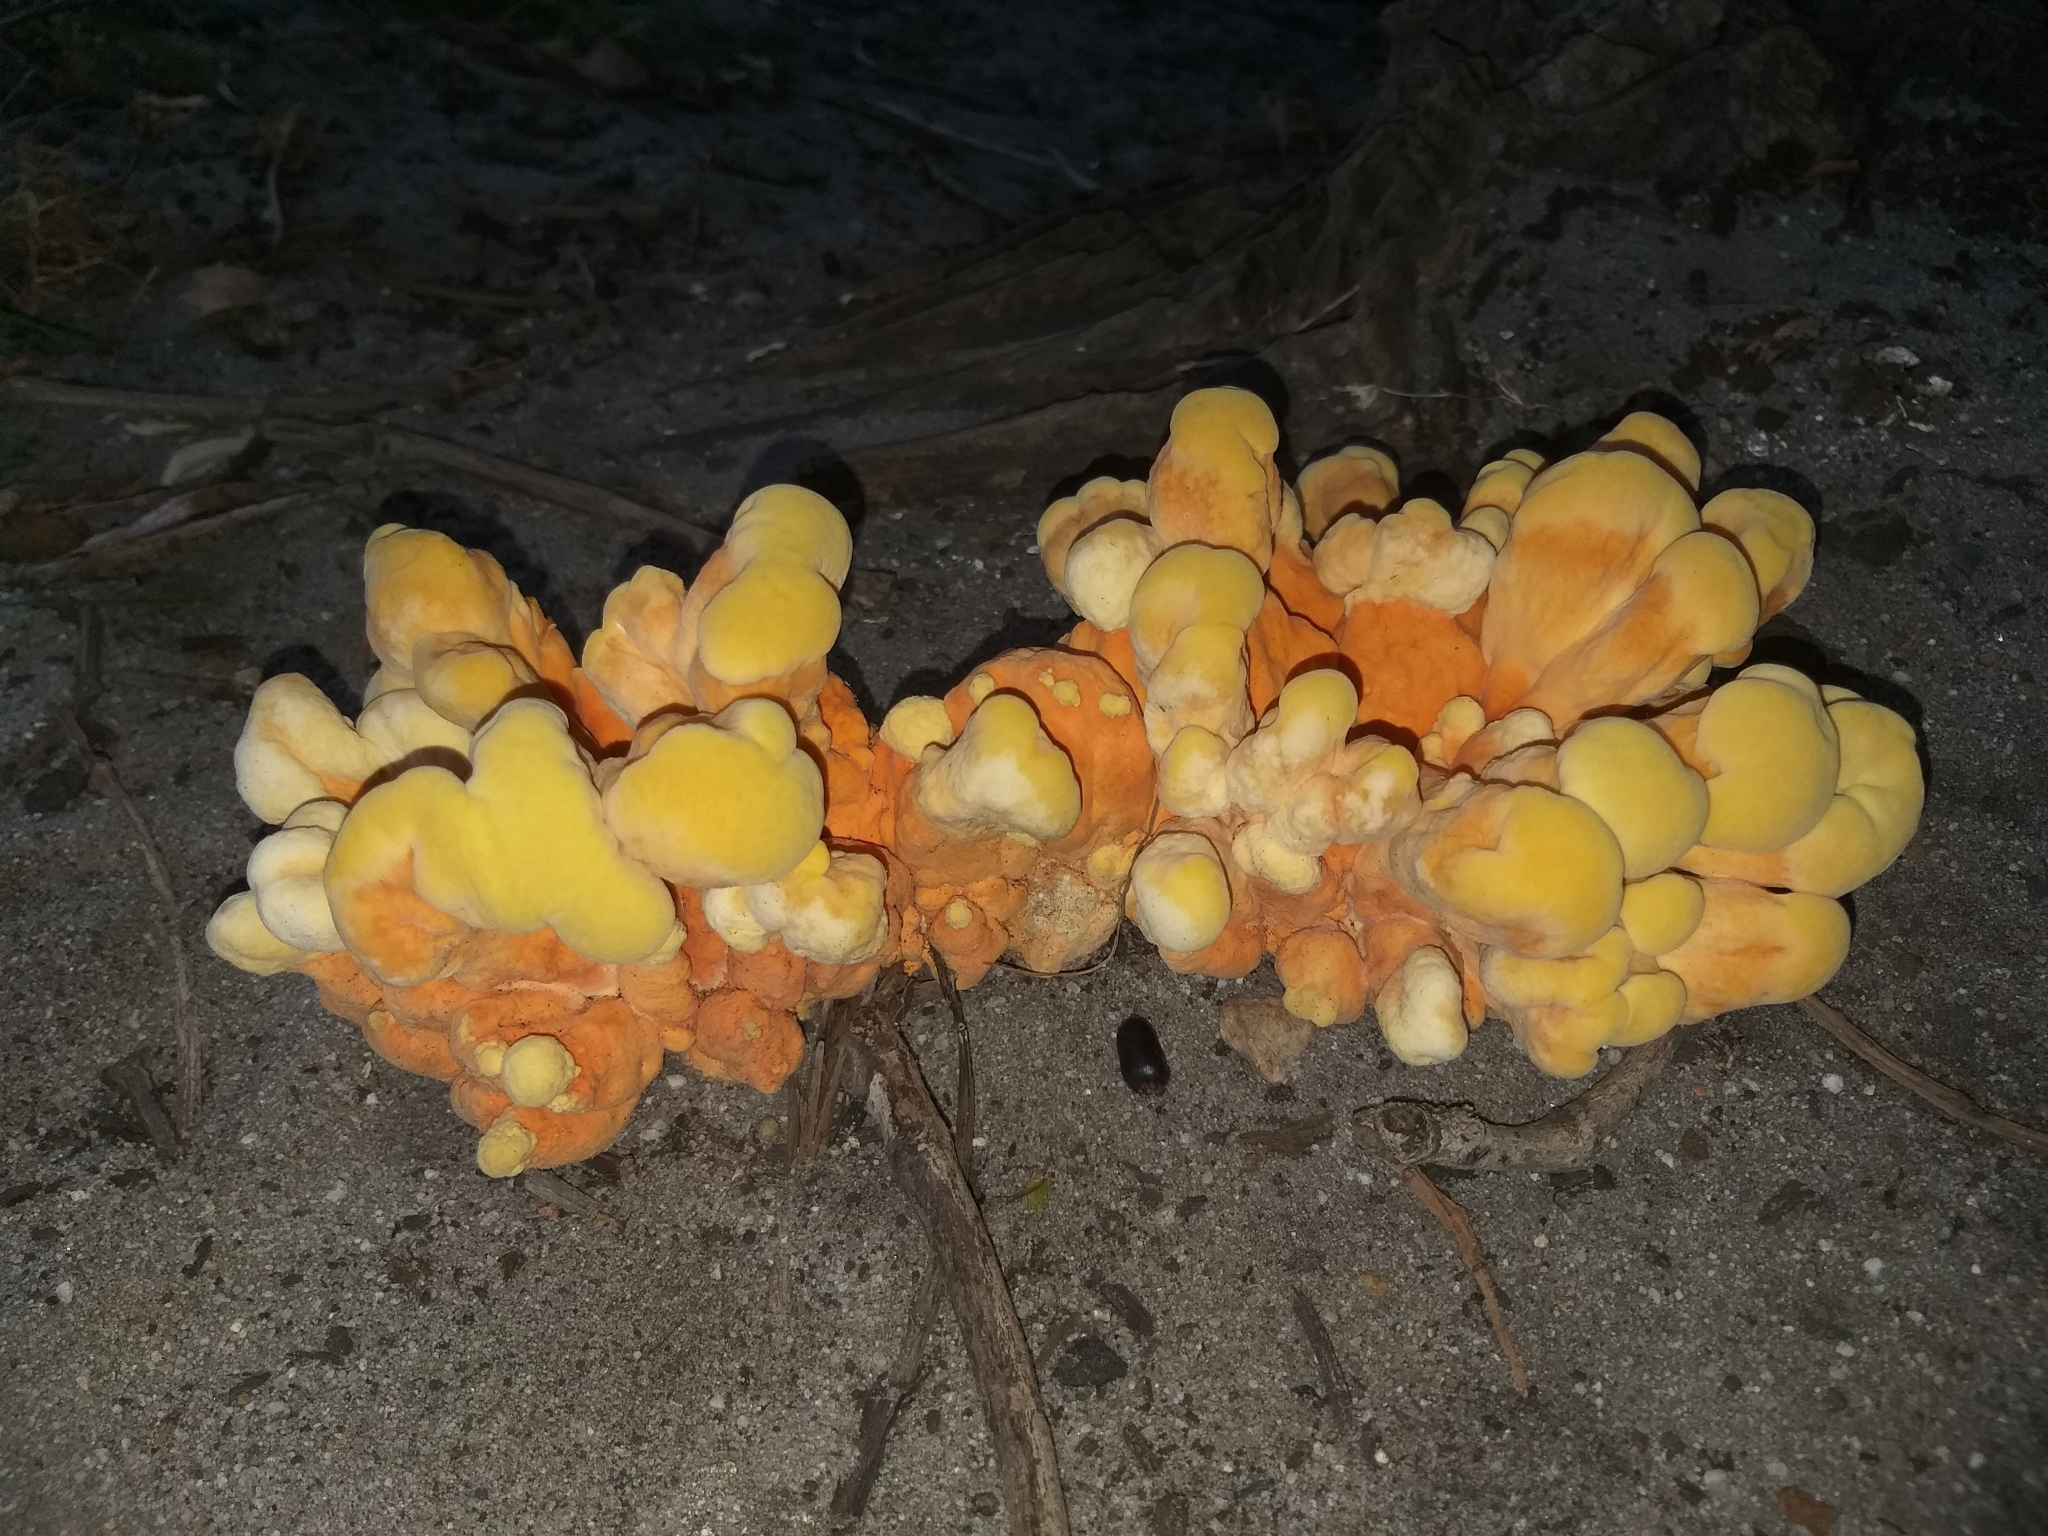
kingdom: Fungi
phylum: Basidiomycota
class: Agaricomycetes
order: Polyporales
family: Laetiporaceae
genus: Laetiporus
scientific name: Laetiporus sulphureus
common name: Chicken of the woods
